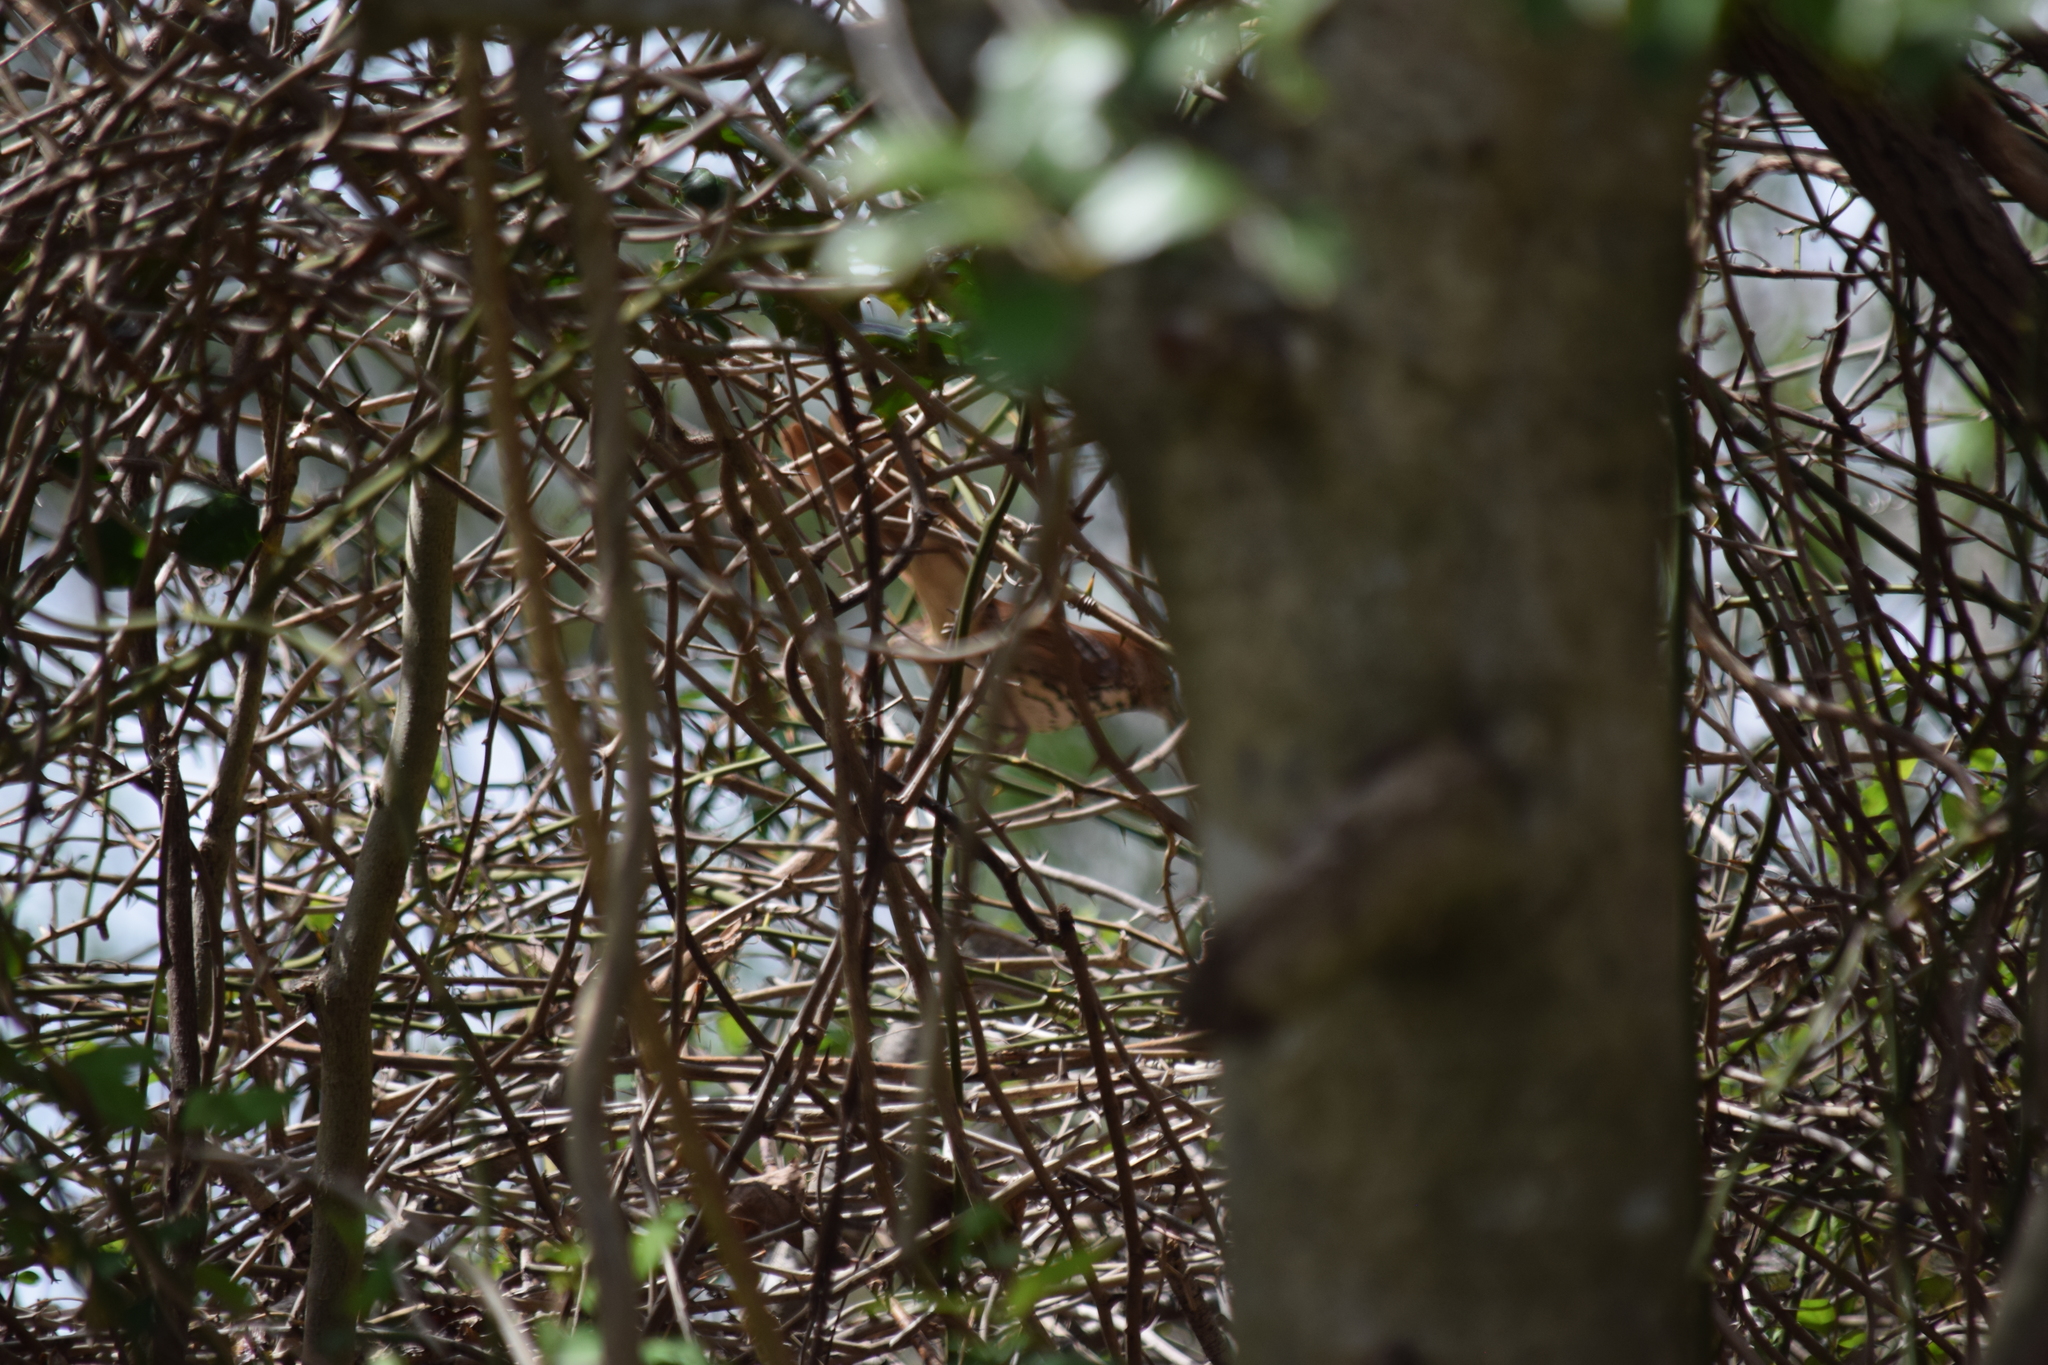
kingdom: Animalia
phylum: Chordata
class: Aves
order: Passeriformes
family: Mimidae
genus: Toxostoma
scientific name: Toxostoma rufum
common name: Brown thrasher
